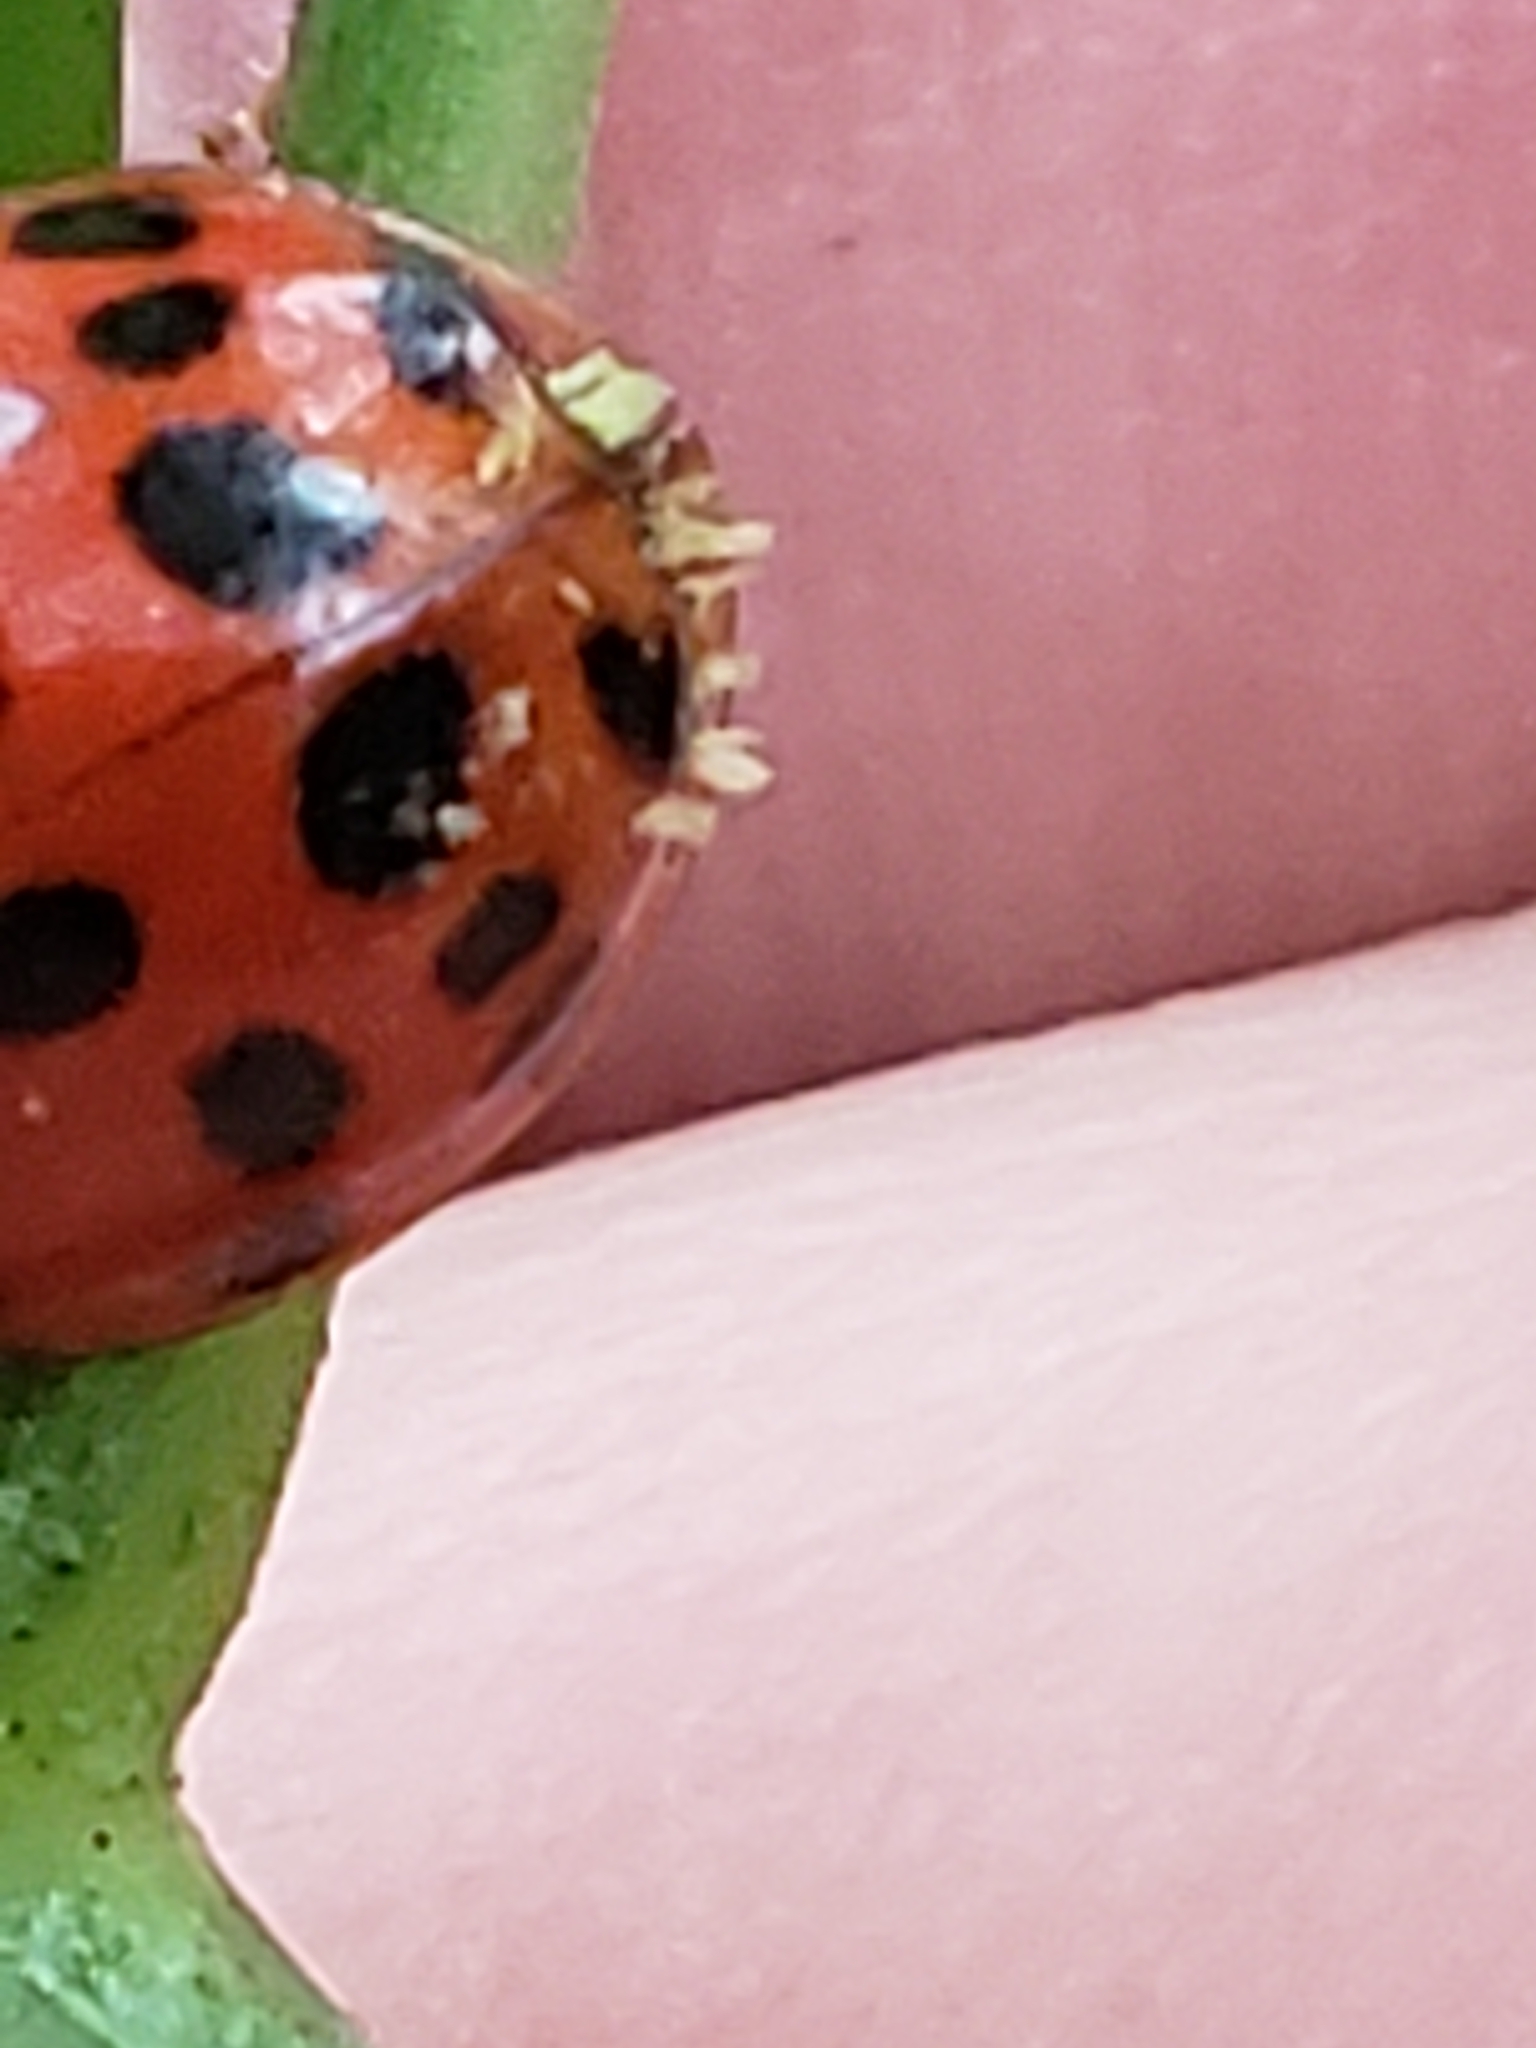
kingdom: Fungi
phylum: Ascomycota
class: Laboulbeniomycetes
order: Laboulbeniales
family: Laboulbeniaceae
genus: Hesperomyces
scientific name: Hesperomyces harmoniae
